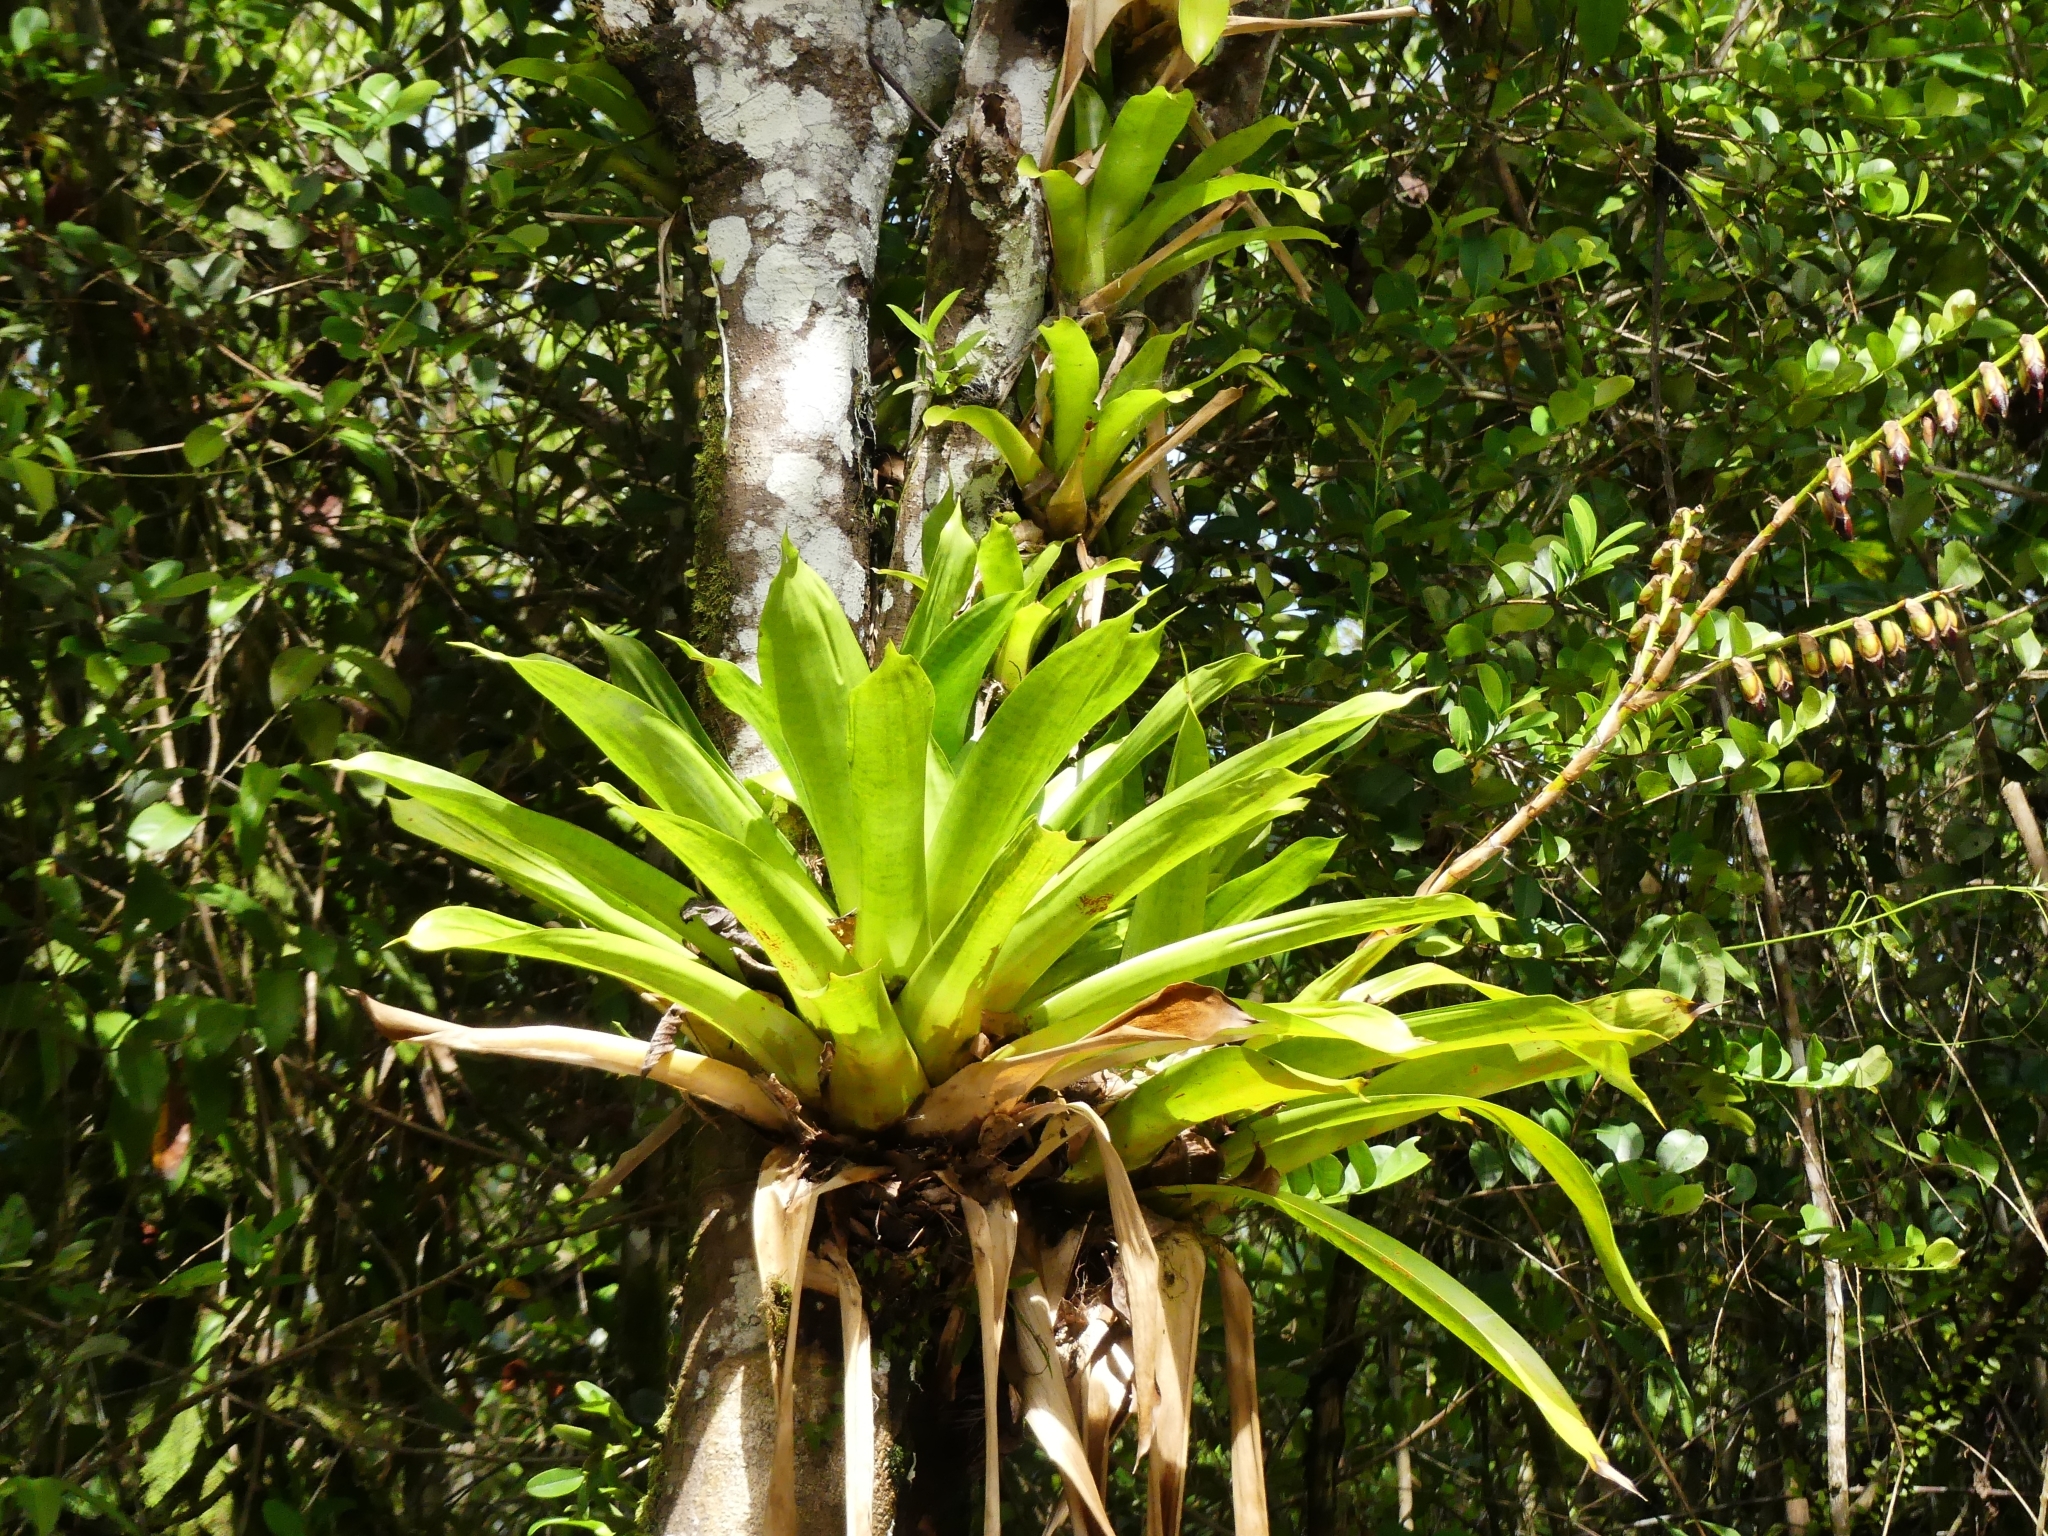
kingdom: Plantae
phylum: Tracheophyta
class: Liliopsida
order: Poales
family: Bromeliaceae
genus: Werauhia
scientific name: Werauhia gigantea
